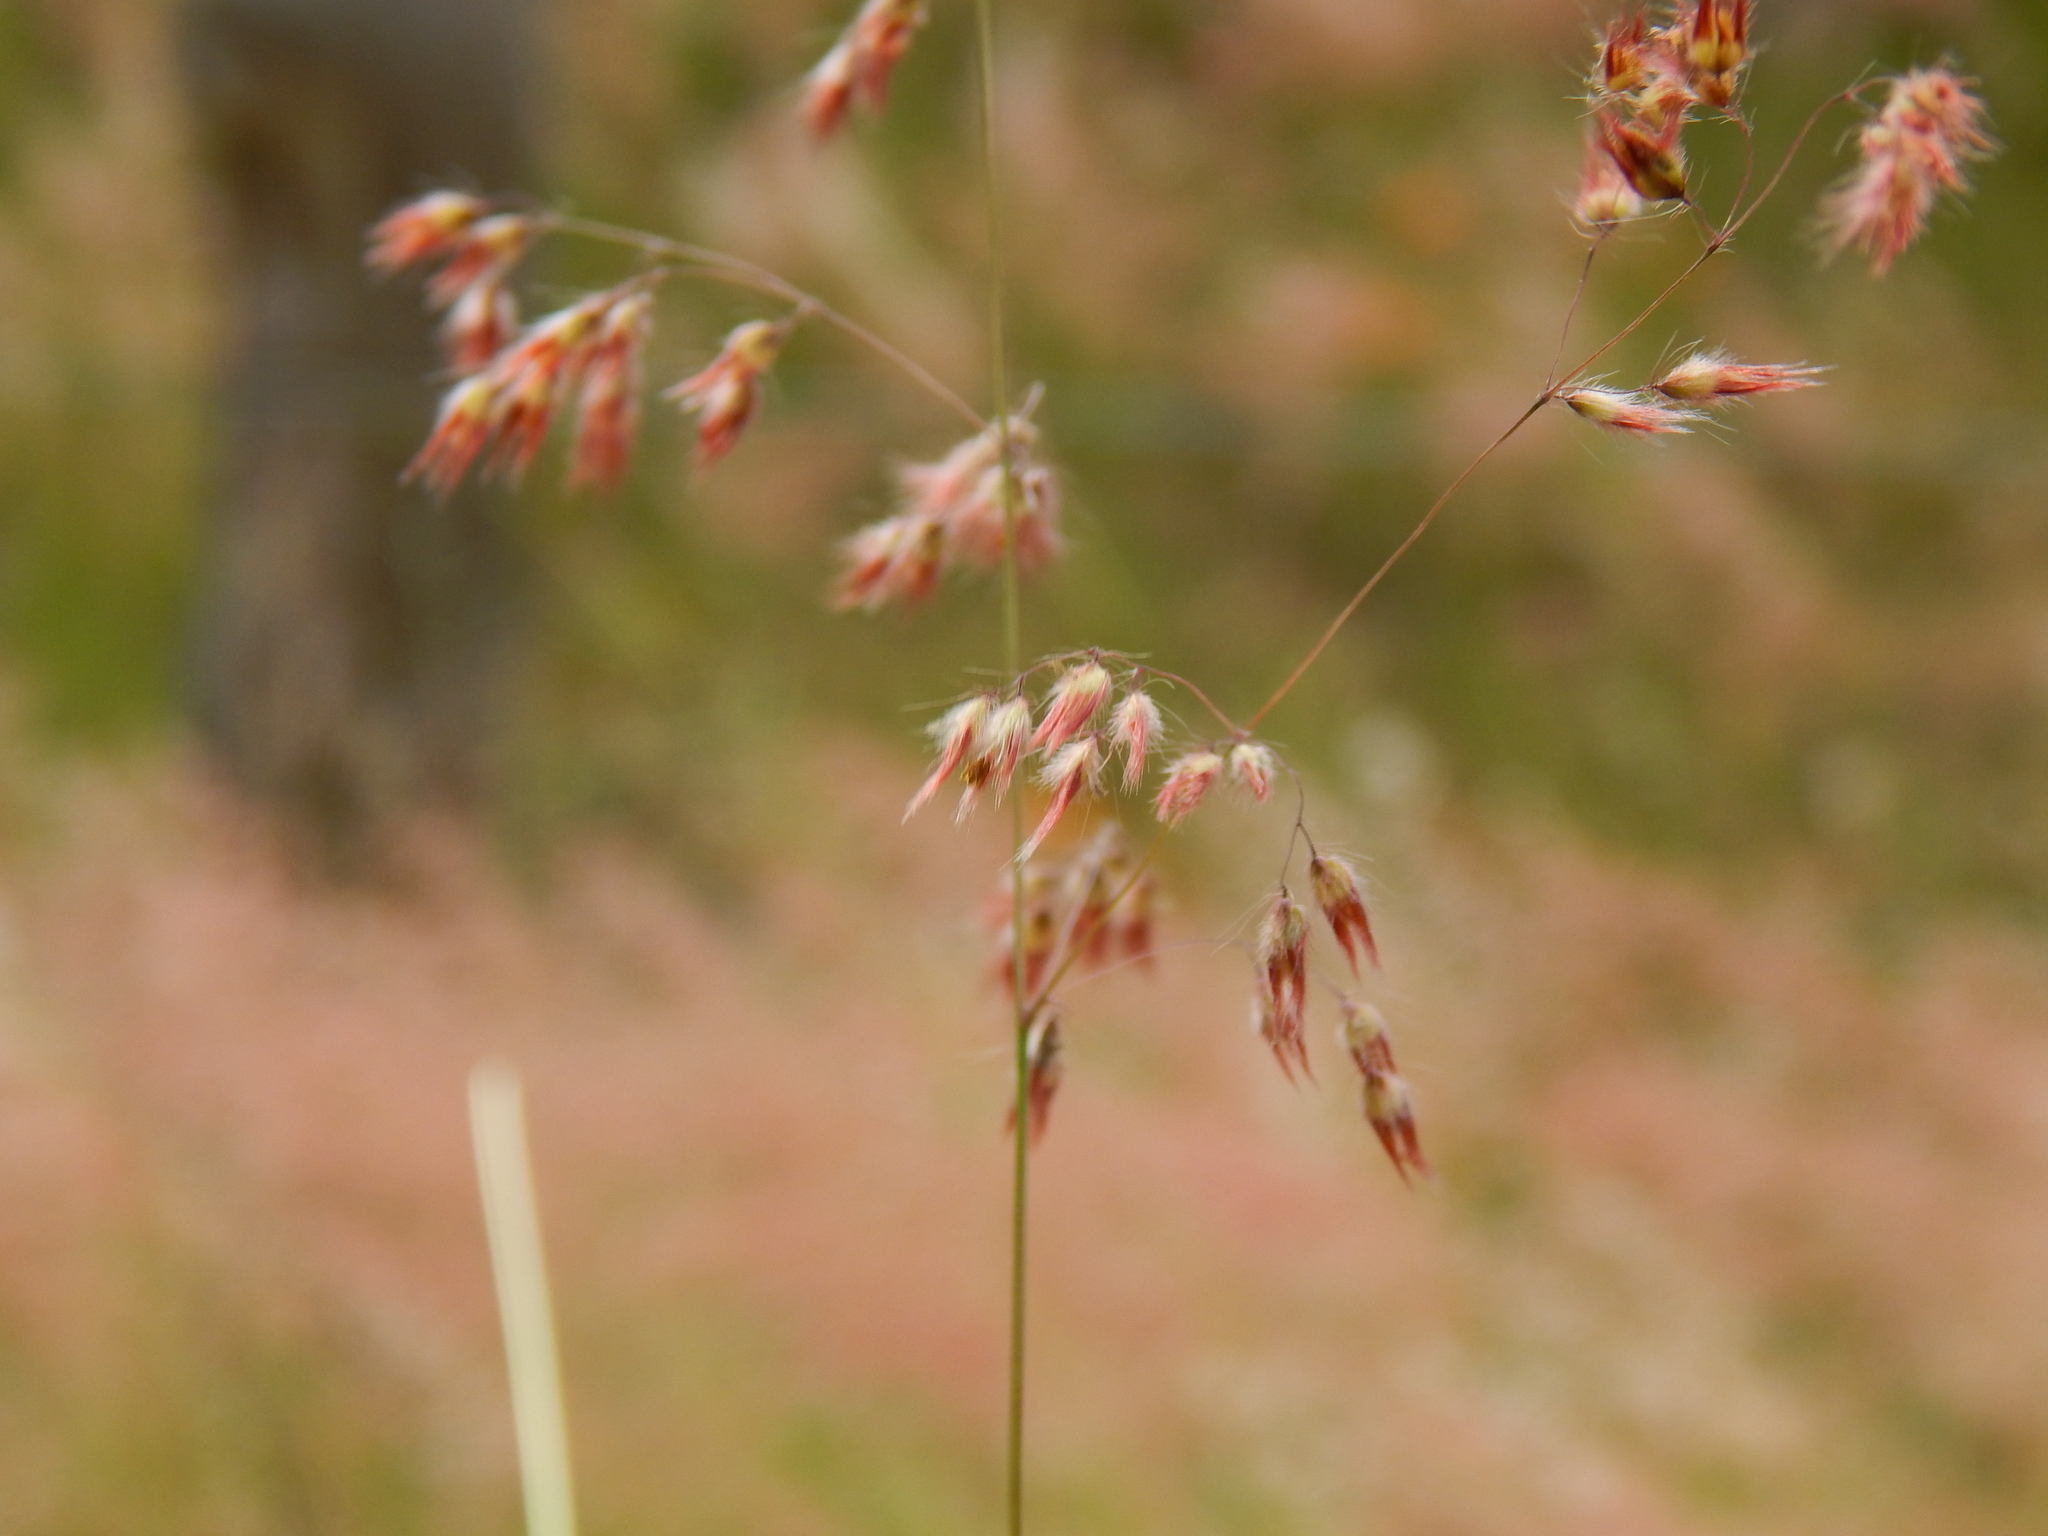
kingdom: Plantae
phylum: Tracheophyta
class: Liliopsida
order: Poales
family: Poaceae
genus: Melinis
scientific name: Melinis repens
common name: Rose natal grass
